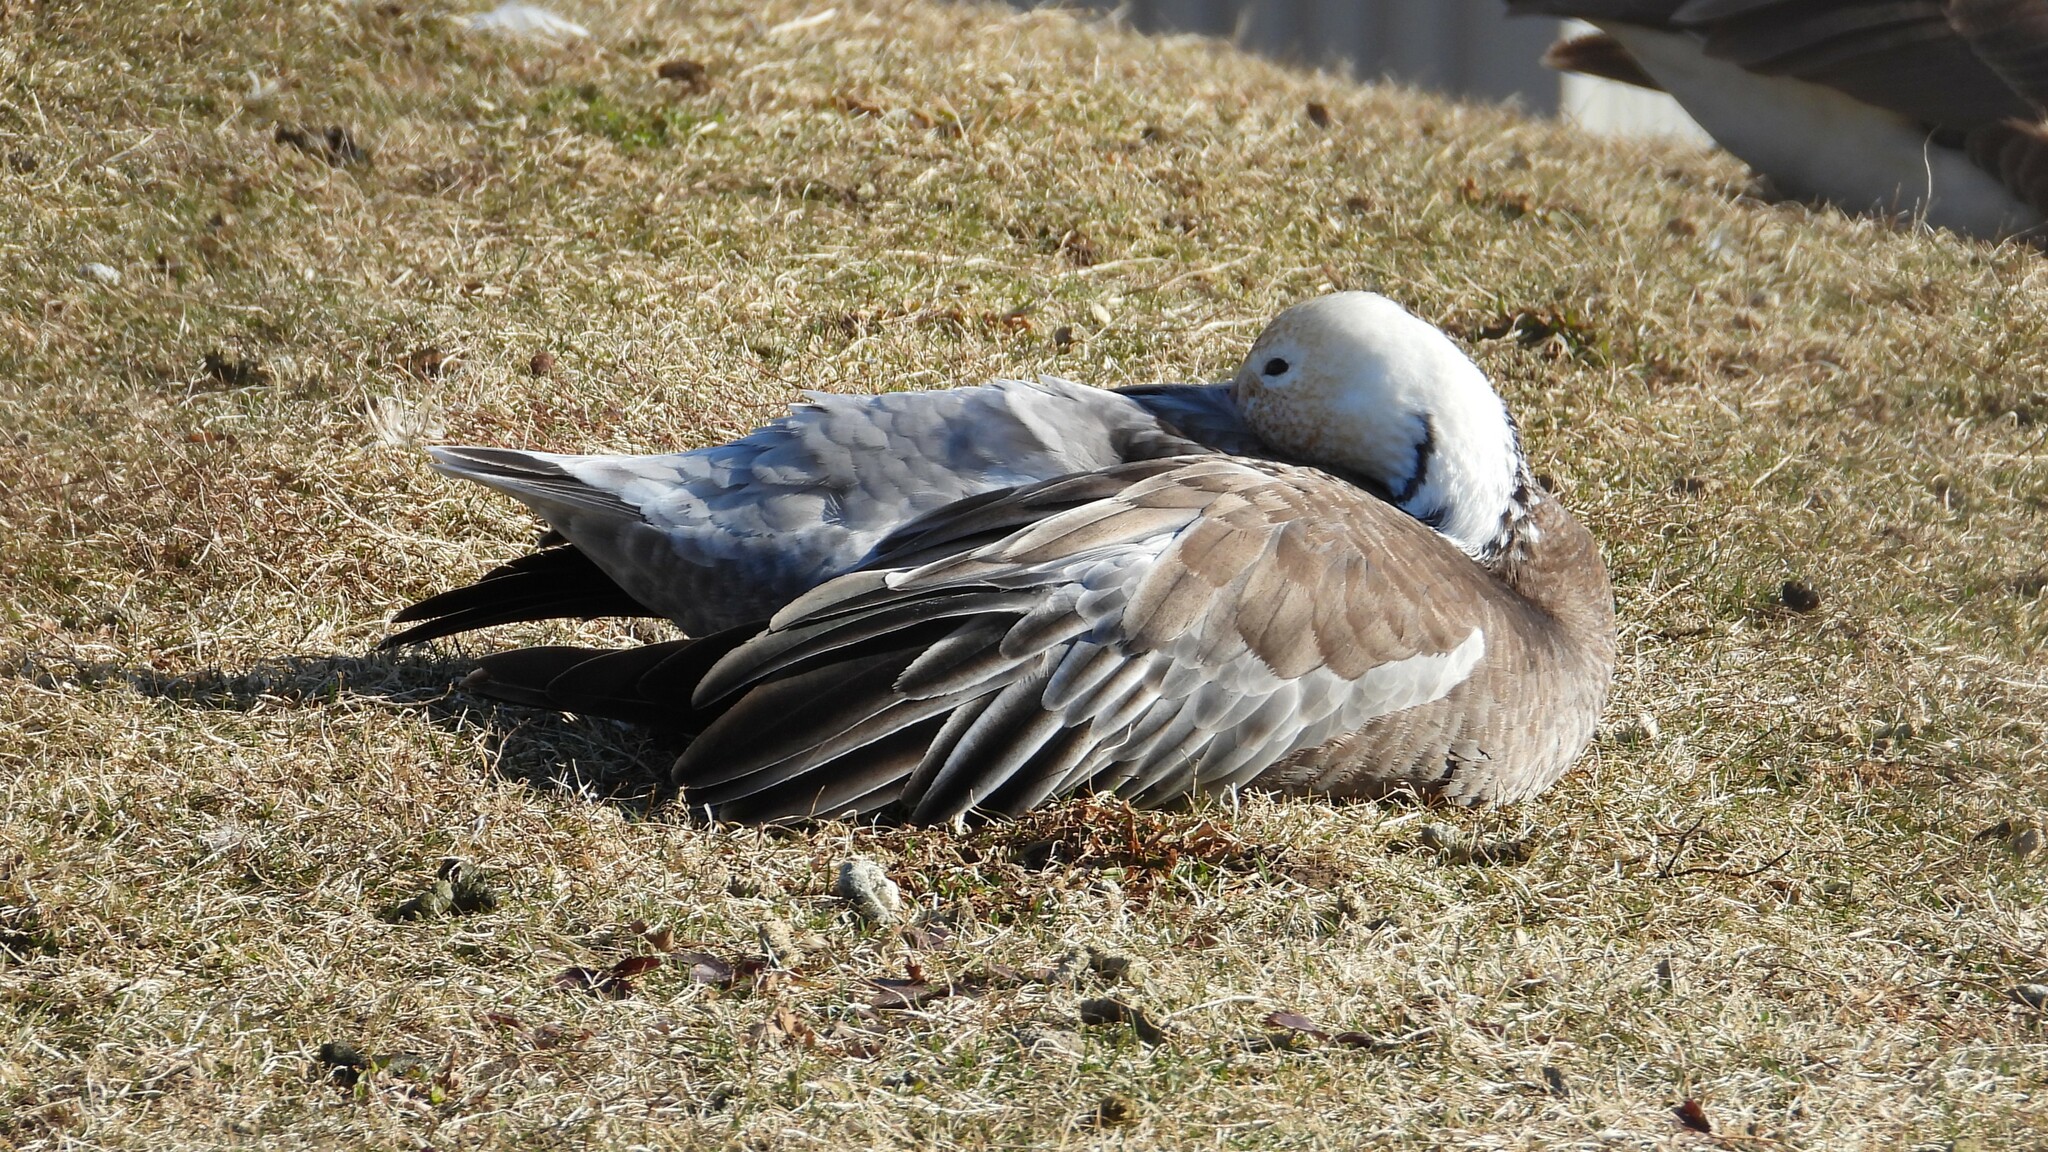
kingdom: Animalia
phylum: Chordata
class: Aves
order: Anseriformes
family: Anatidae
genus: Anser
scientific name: Anser caerulescens
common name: Snow goose
